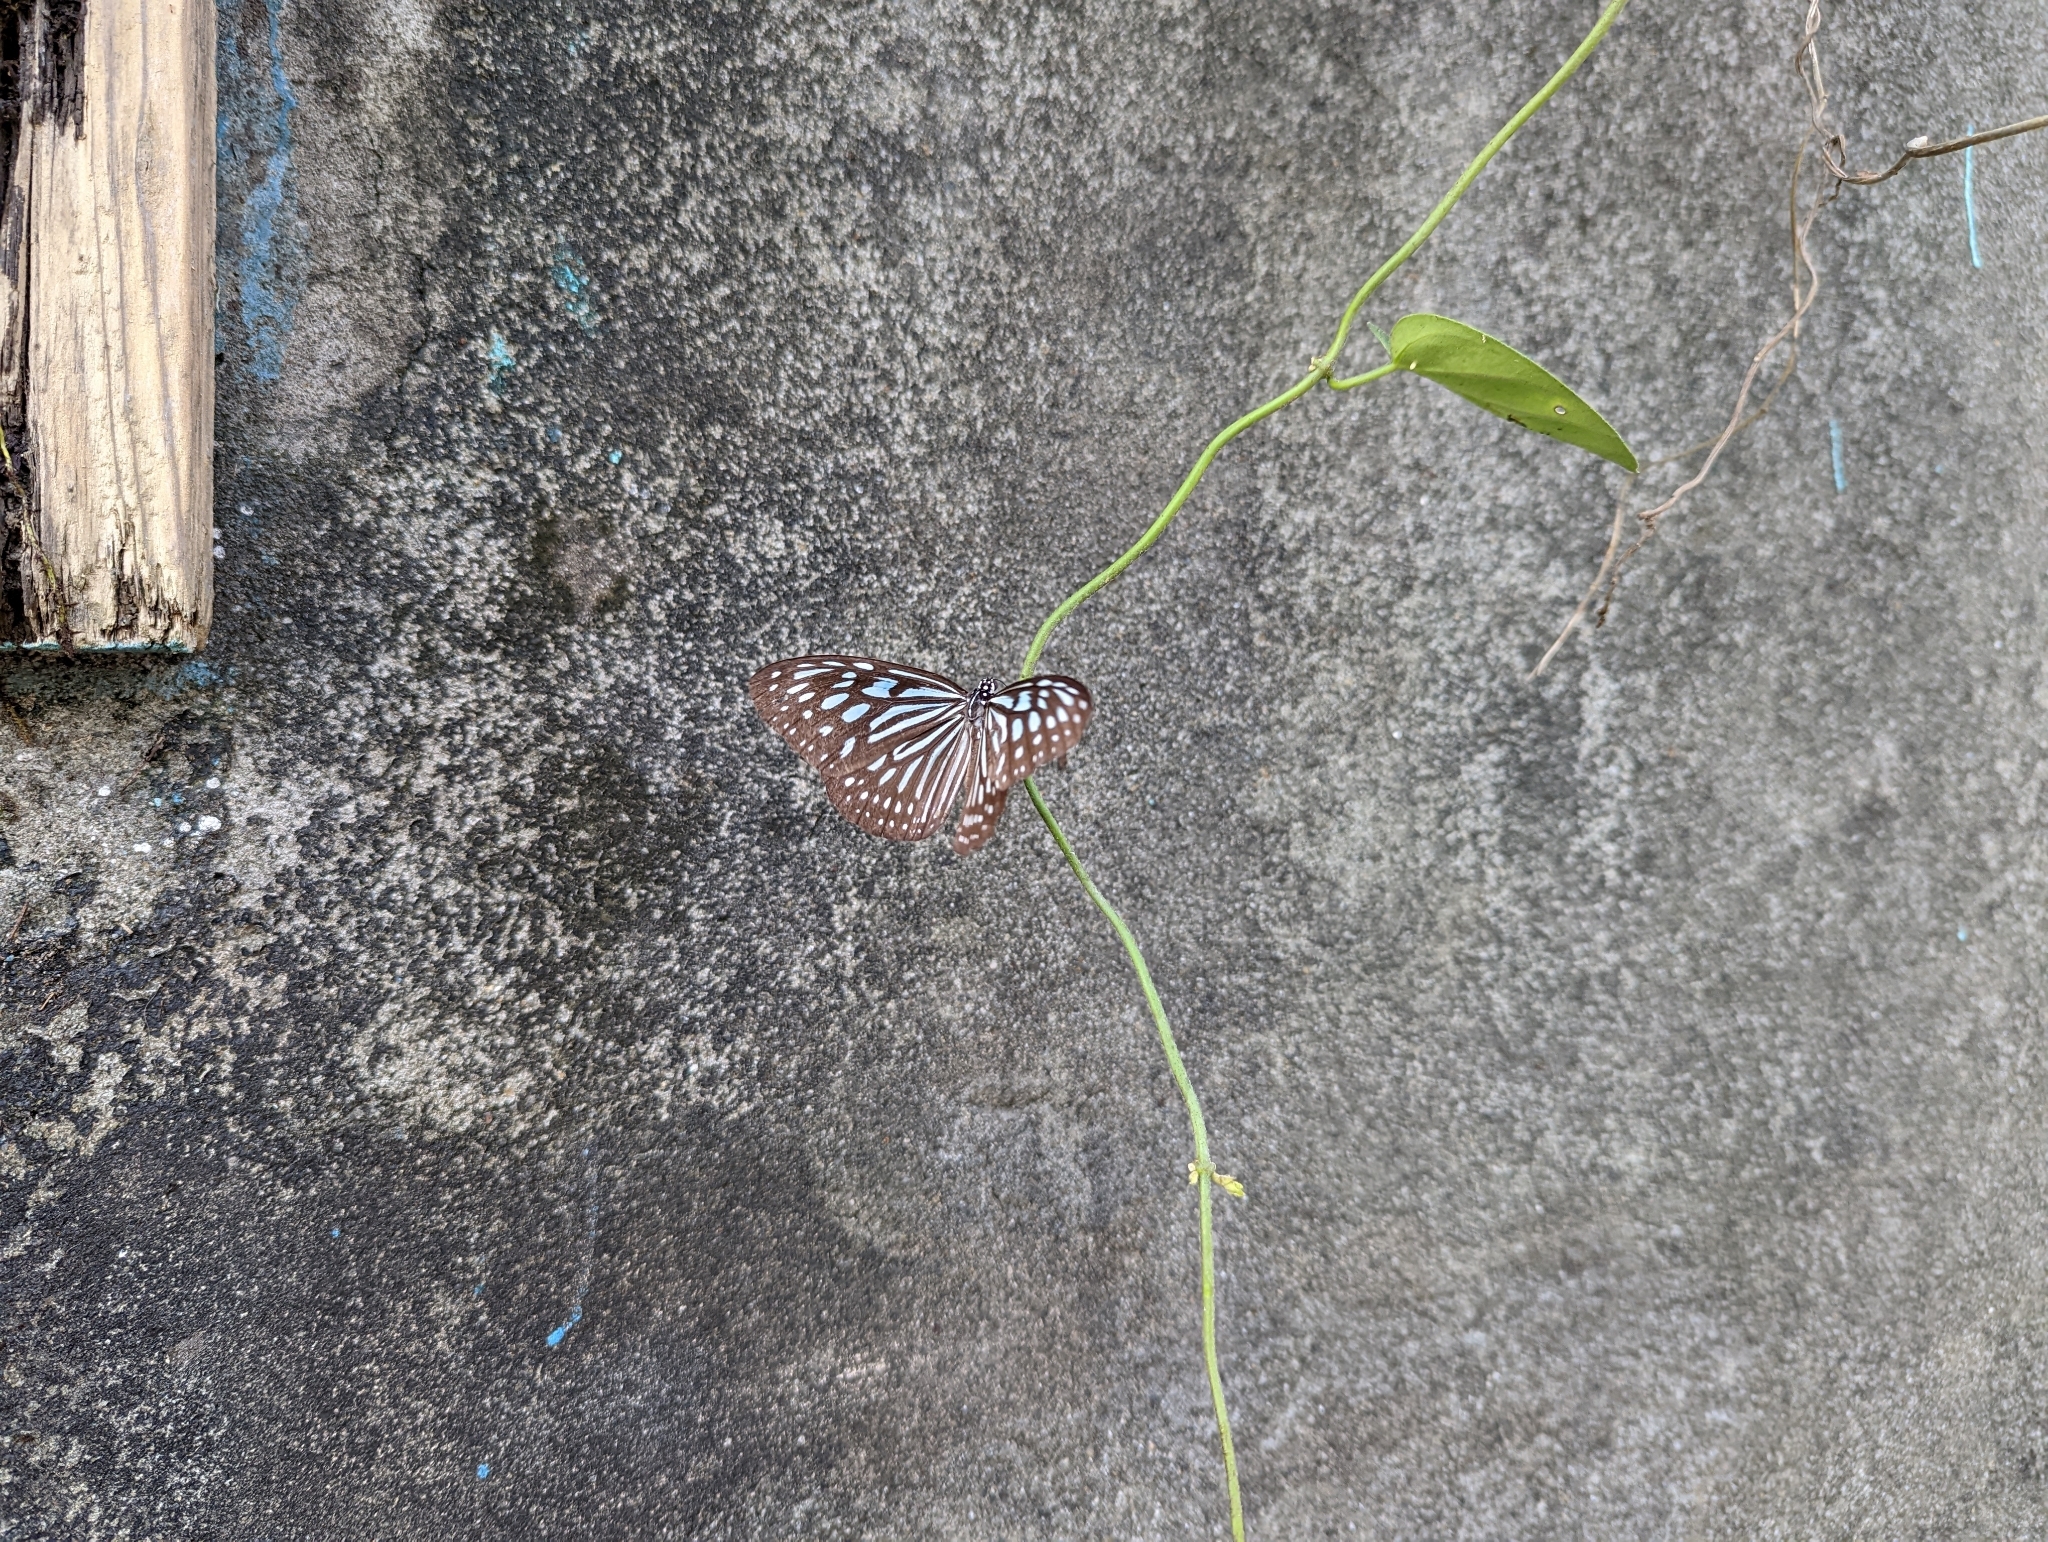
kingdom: Animalia
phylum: Arthropoda
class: Insecta
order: Lepidoptera
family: Nymphalidae
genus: Ideopsis
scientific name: Ideopsis similis
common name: Ceylon blue glassy tiger
